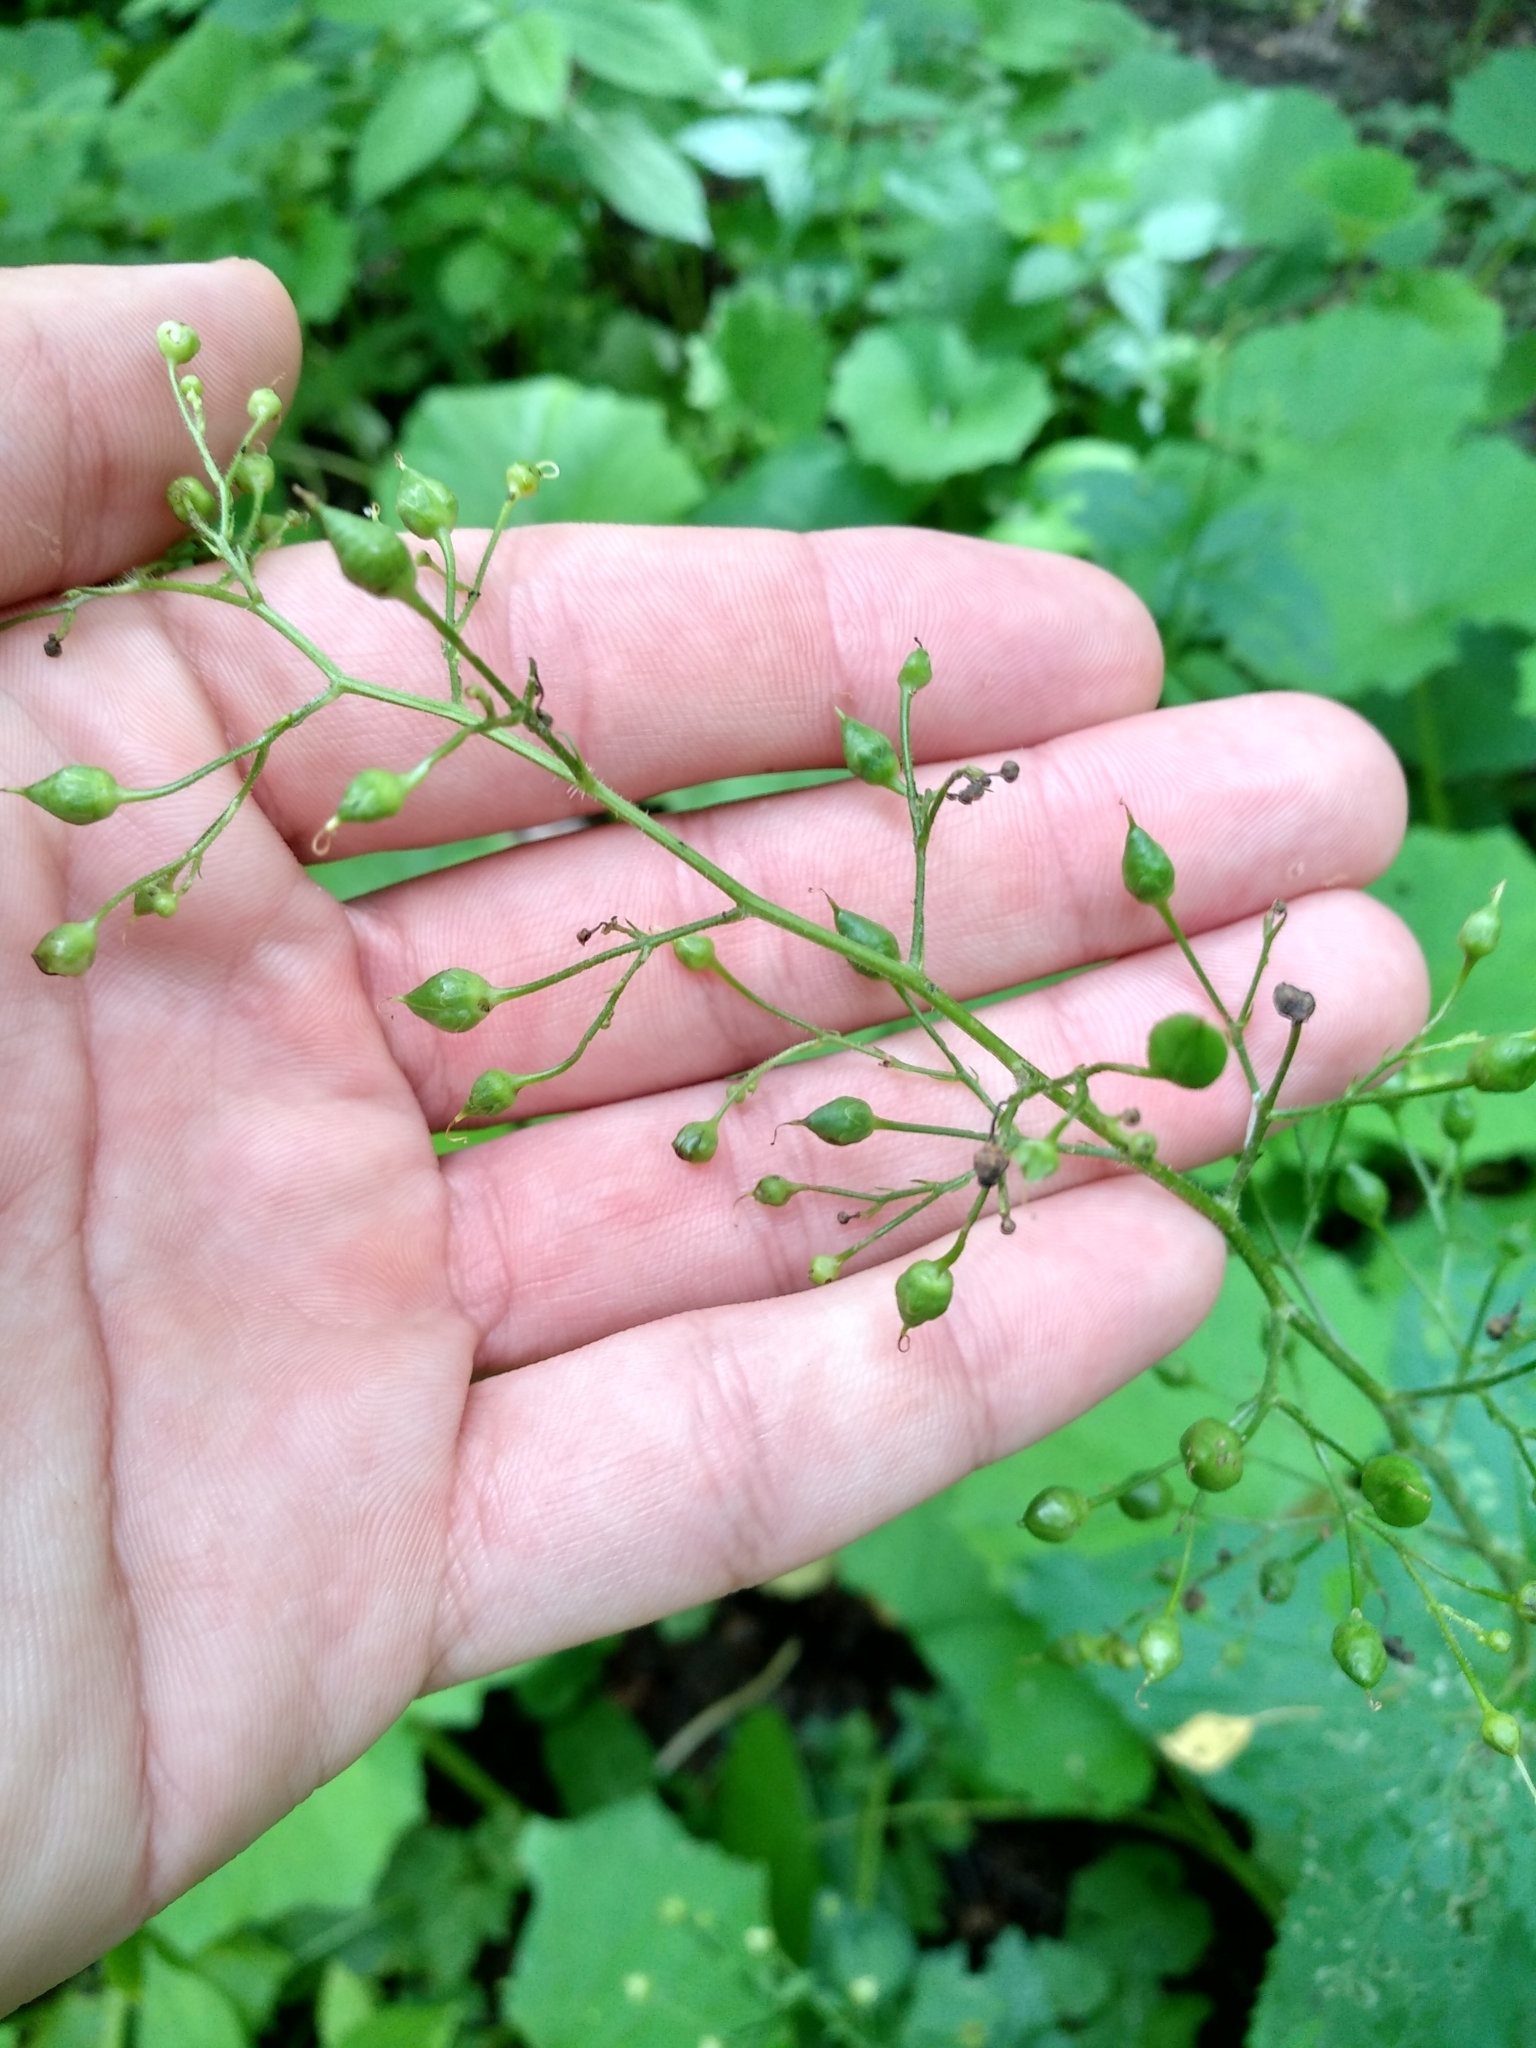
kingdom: Plantae
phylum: Tracheophyta
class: Magnoliopsida
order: Lamiales
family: Scrophulariaceae
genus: Scrophularia
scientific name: Scrophularia nodosa
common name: Common figwort
